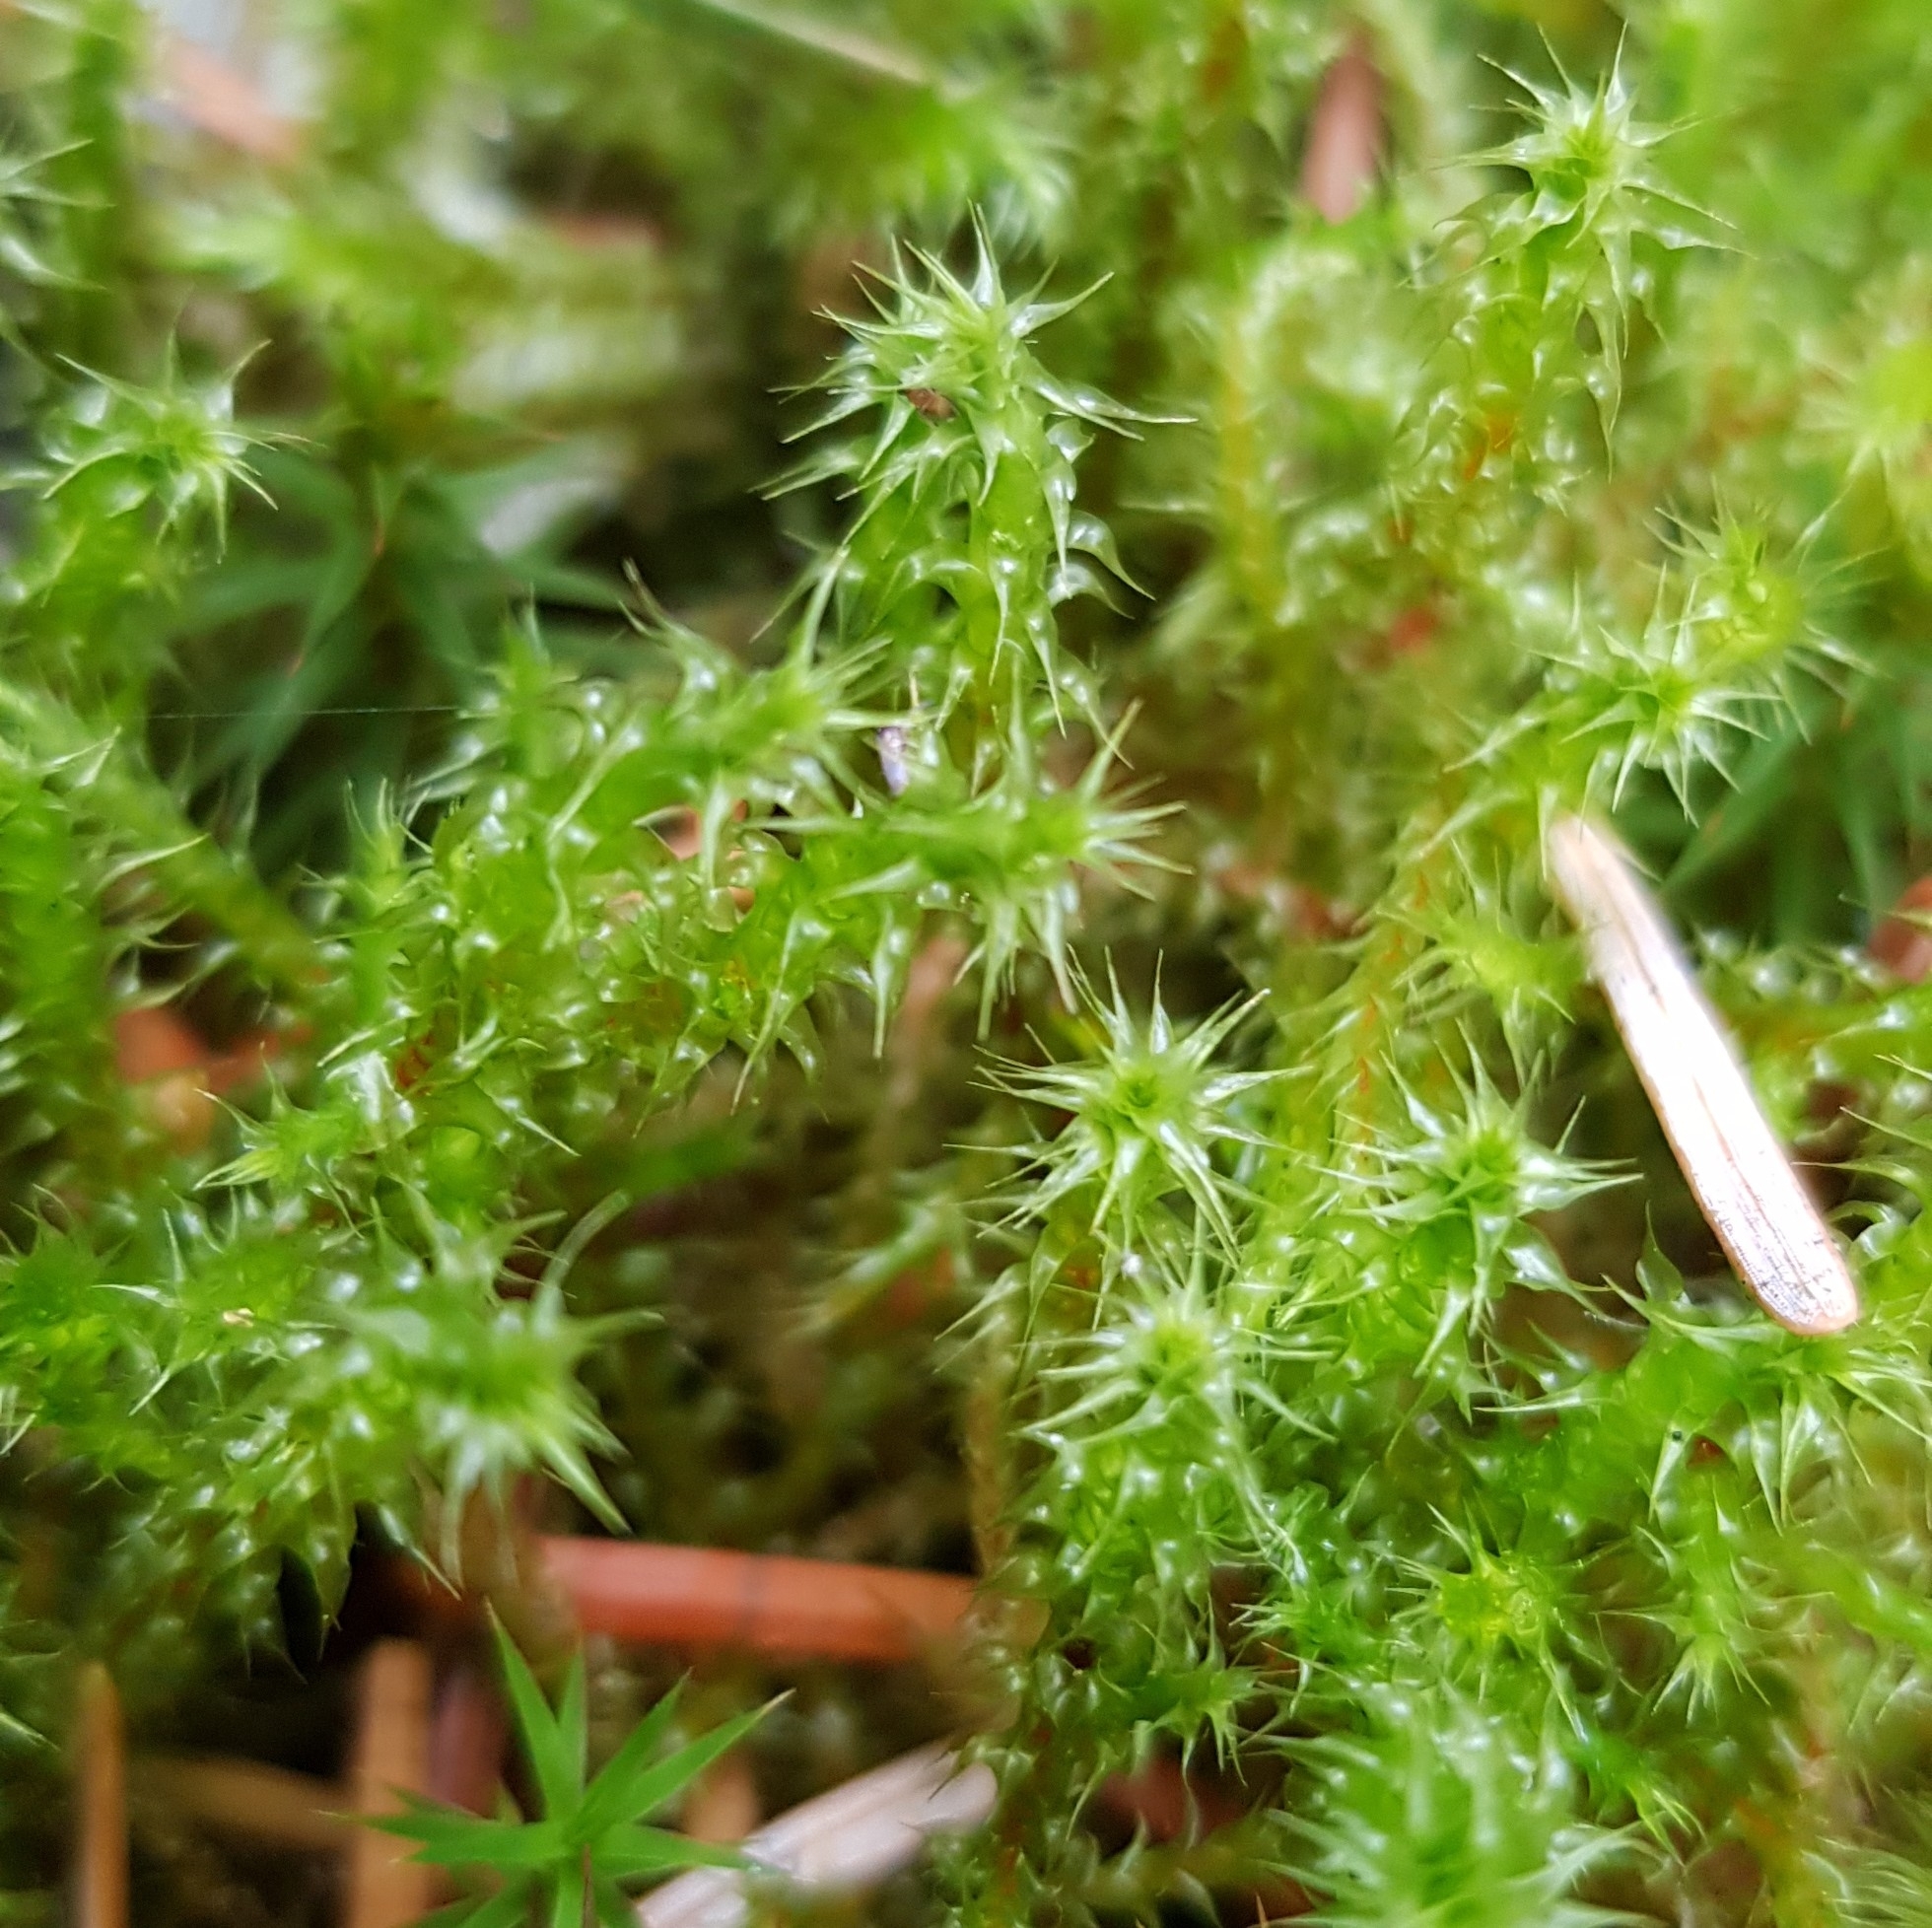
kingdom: Plantae
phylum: Bryophyta
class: Bryopsida
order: Hypnales
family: Hylocomiaceae
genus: Rhytidiadelphus
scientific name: Rhytidiadelphus squarrosus
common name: Springy turf-moss
